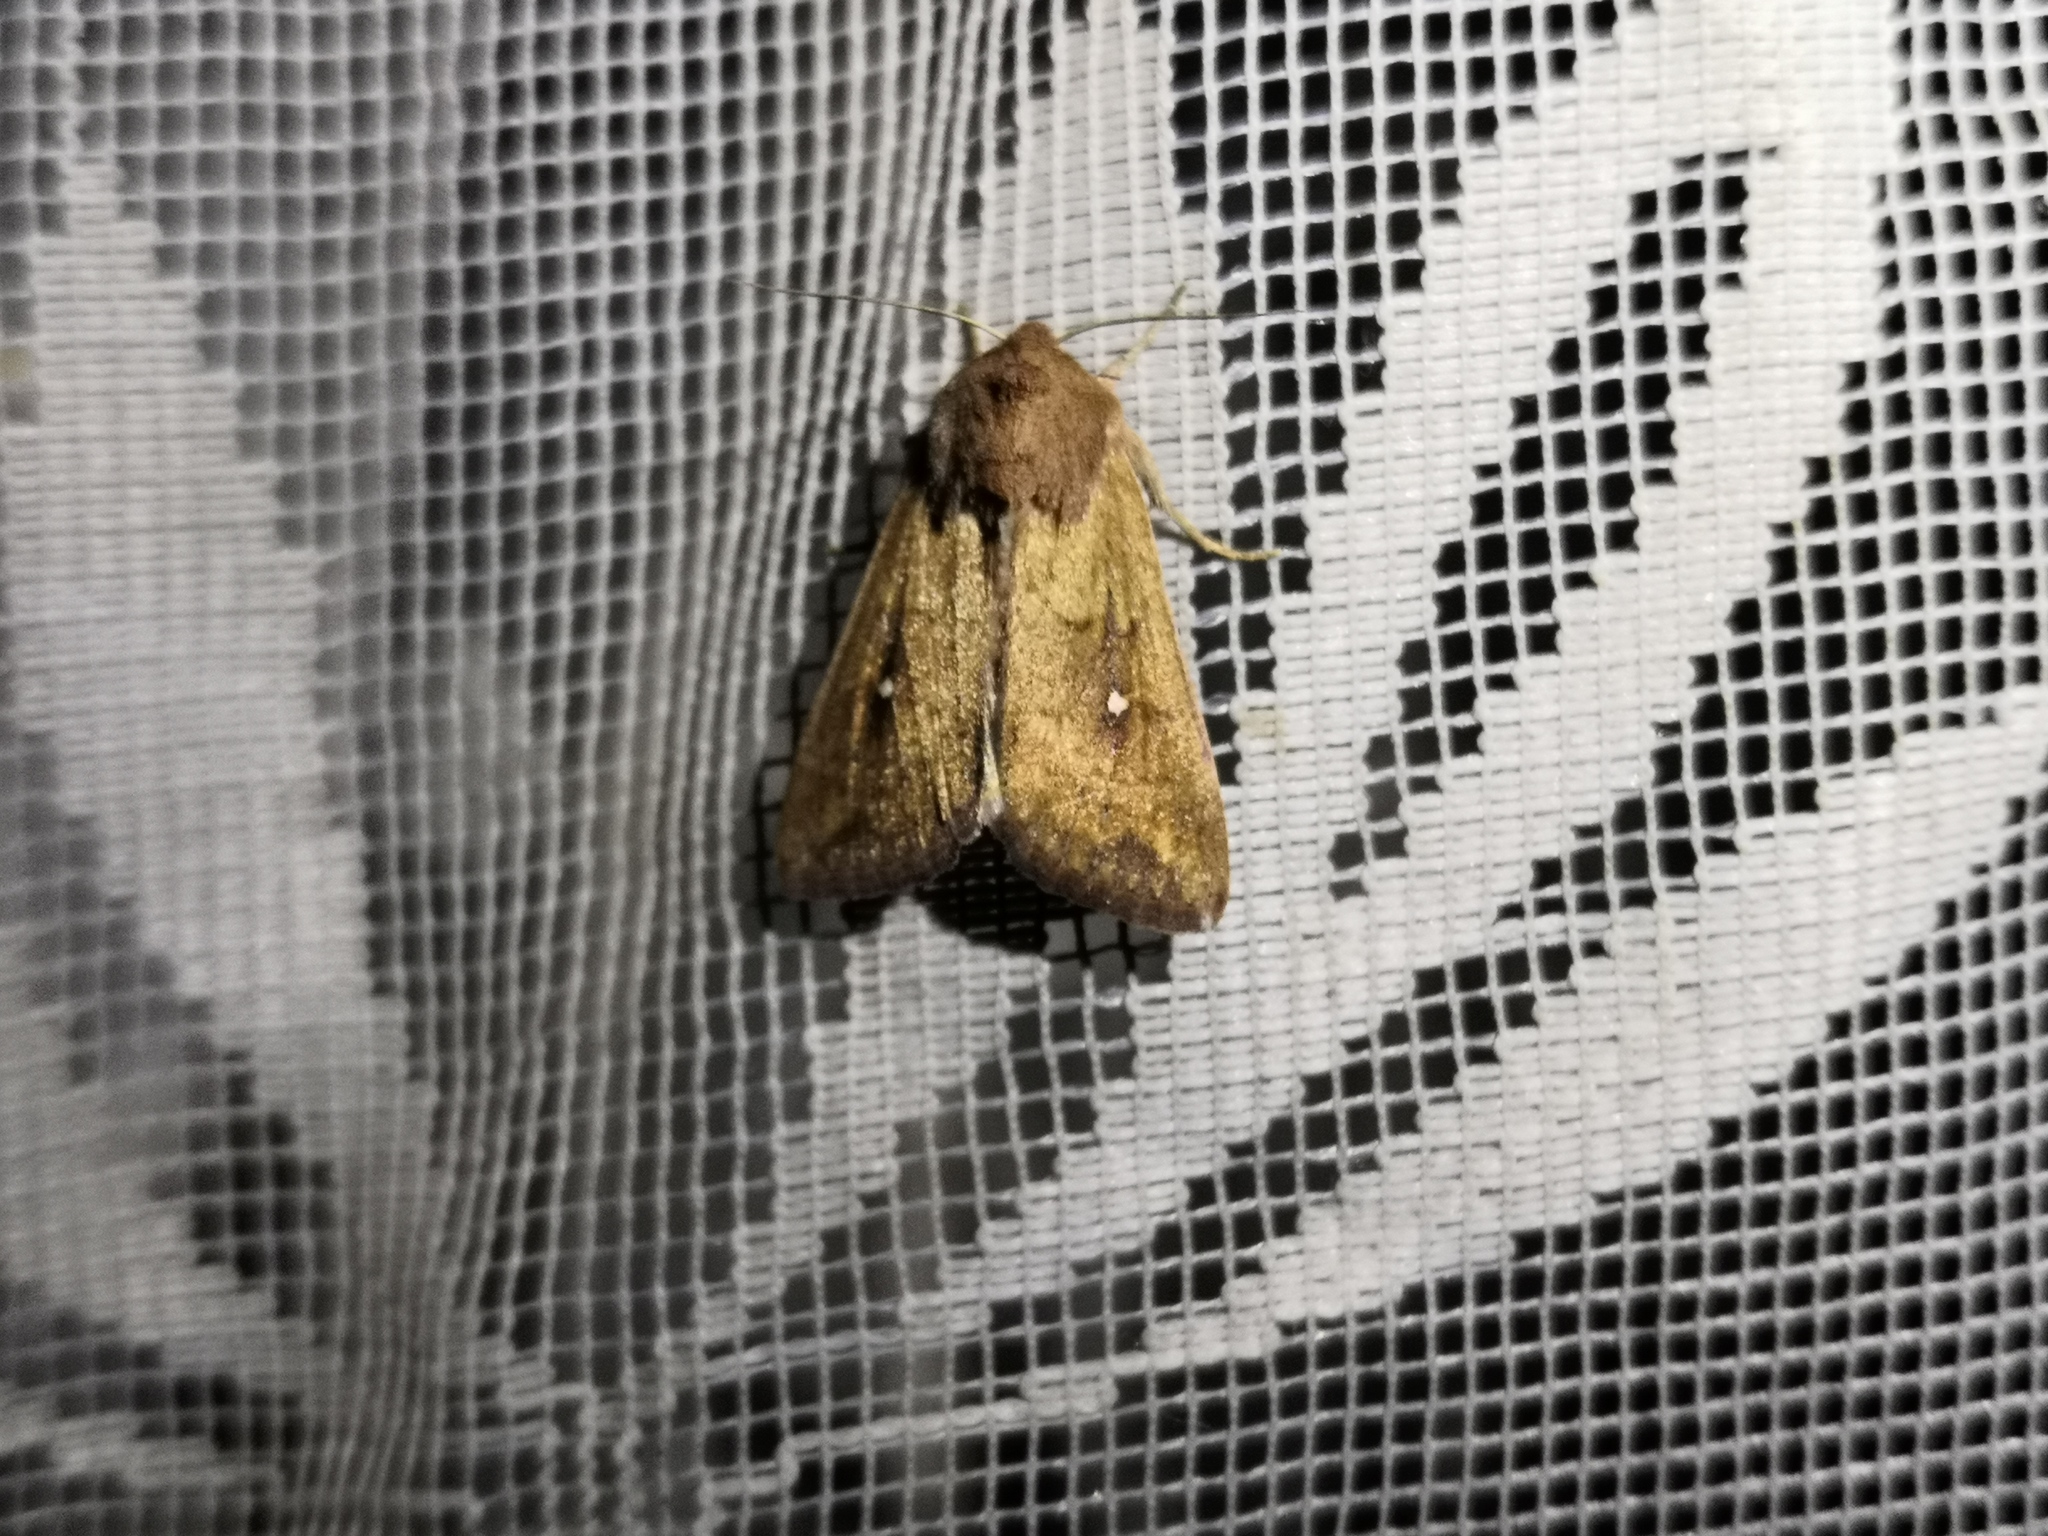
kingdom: Animalia
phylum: Arthropoda
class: Insecta
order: Lepidoptera
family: Noctuidae
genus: Mythimna
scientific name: Mythimna albipuncta
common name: White-point
